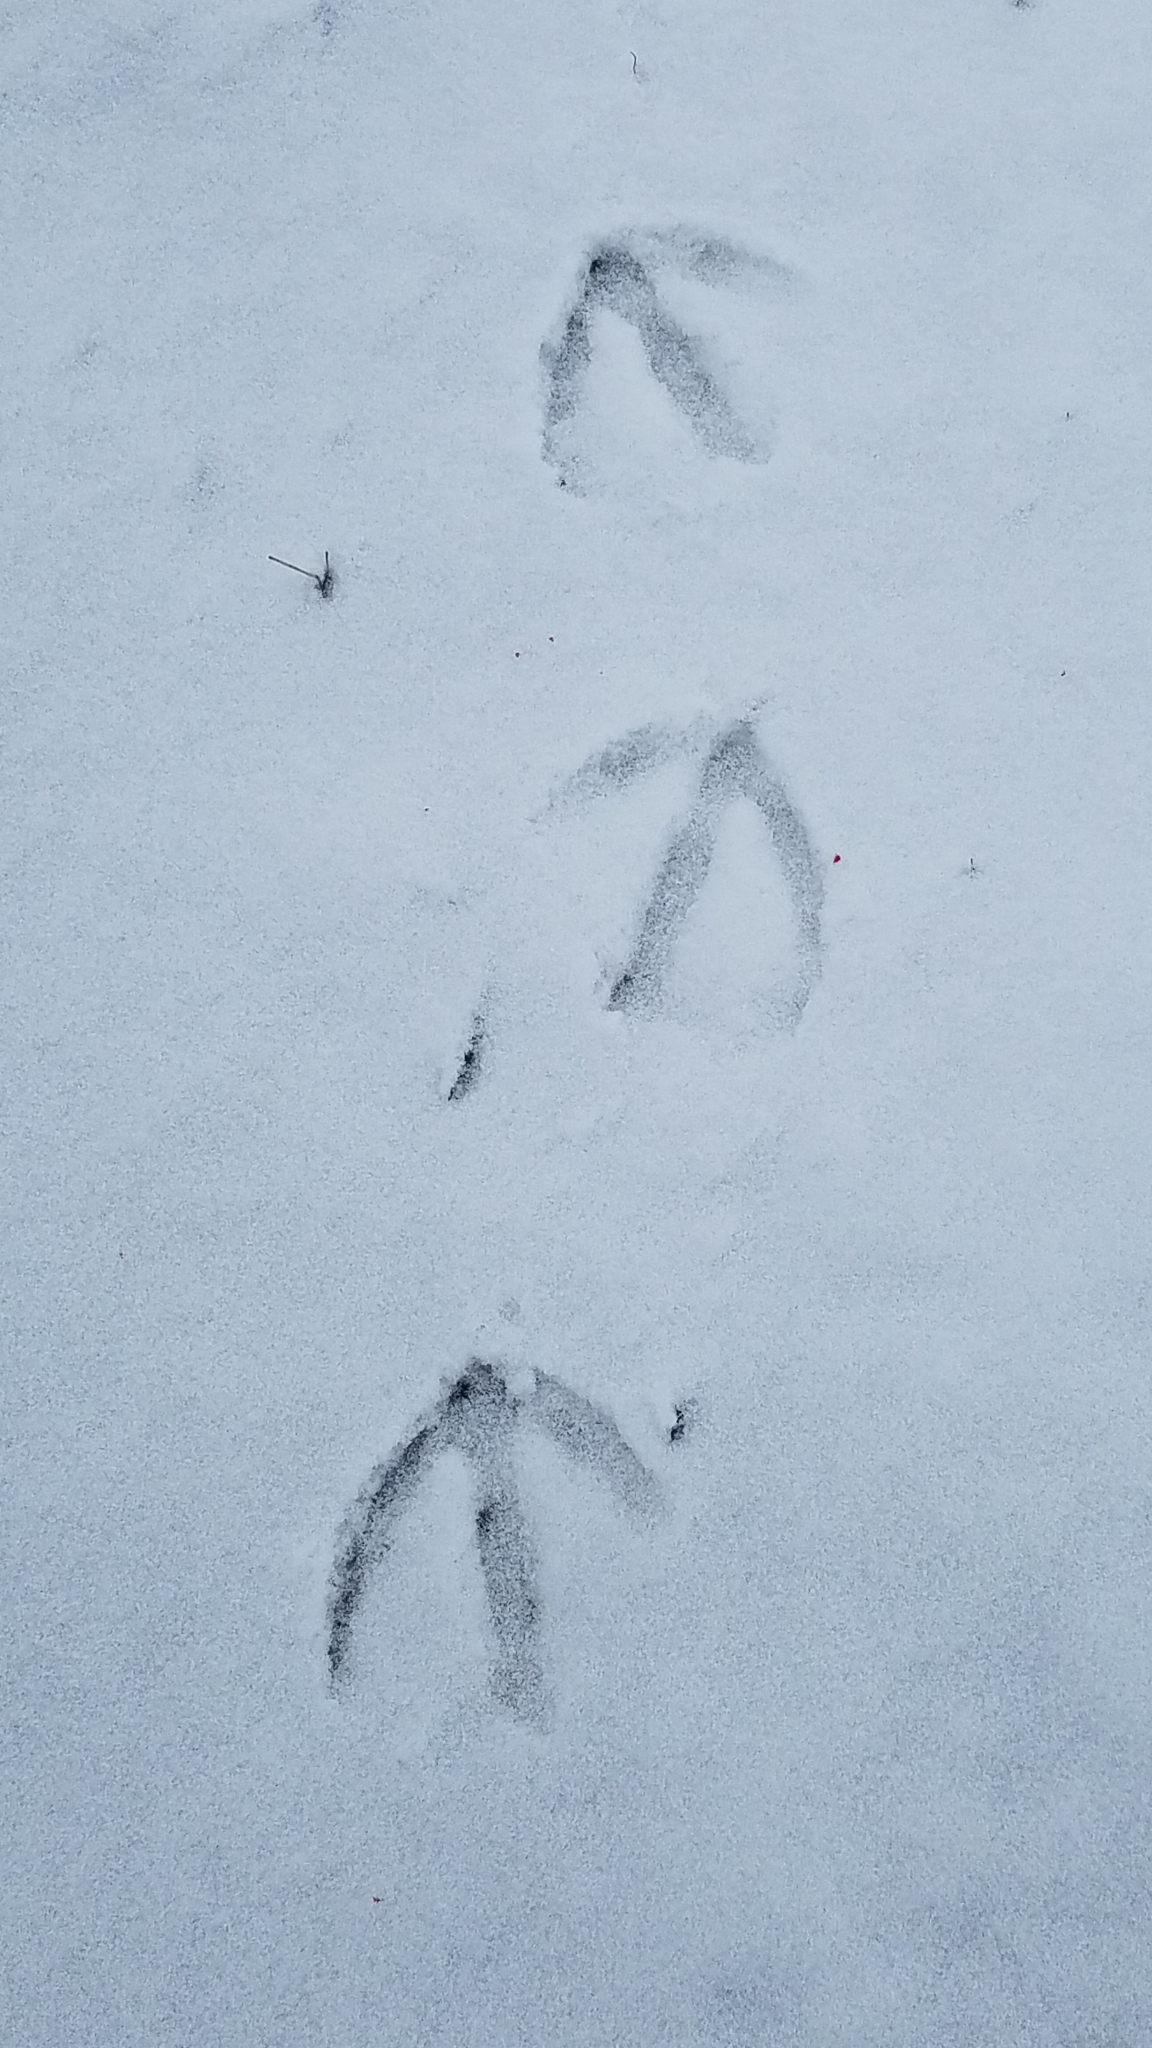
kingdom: Animalia
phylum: Chordata
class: Aves
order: Anseriformes
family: Anatidae
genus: Branta
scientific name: Branta canadensis
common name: Canada goose
